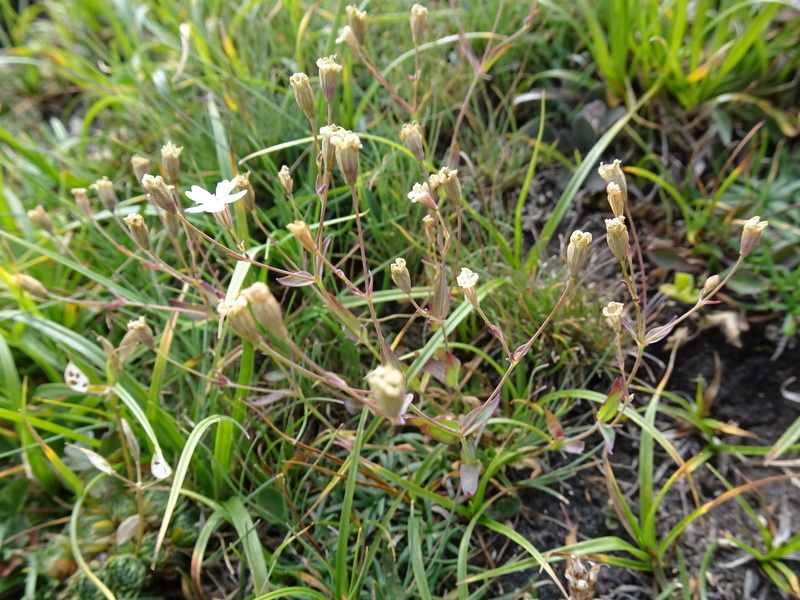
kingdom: Plantae
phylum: Tracheophyta
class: Magnoliopsida
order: Caryophyllales
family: Caryophyllaceae
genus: Atocion
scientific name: Atocion rupestre
